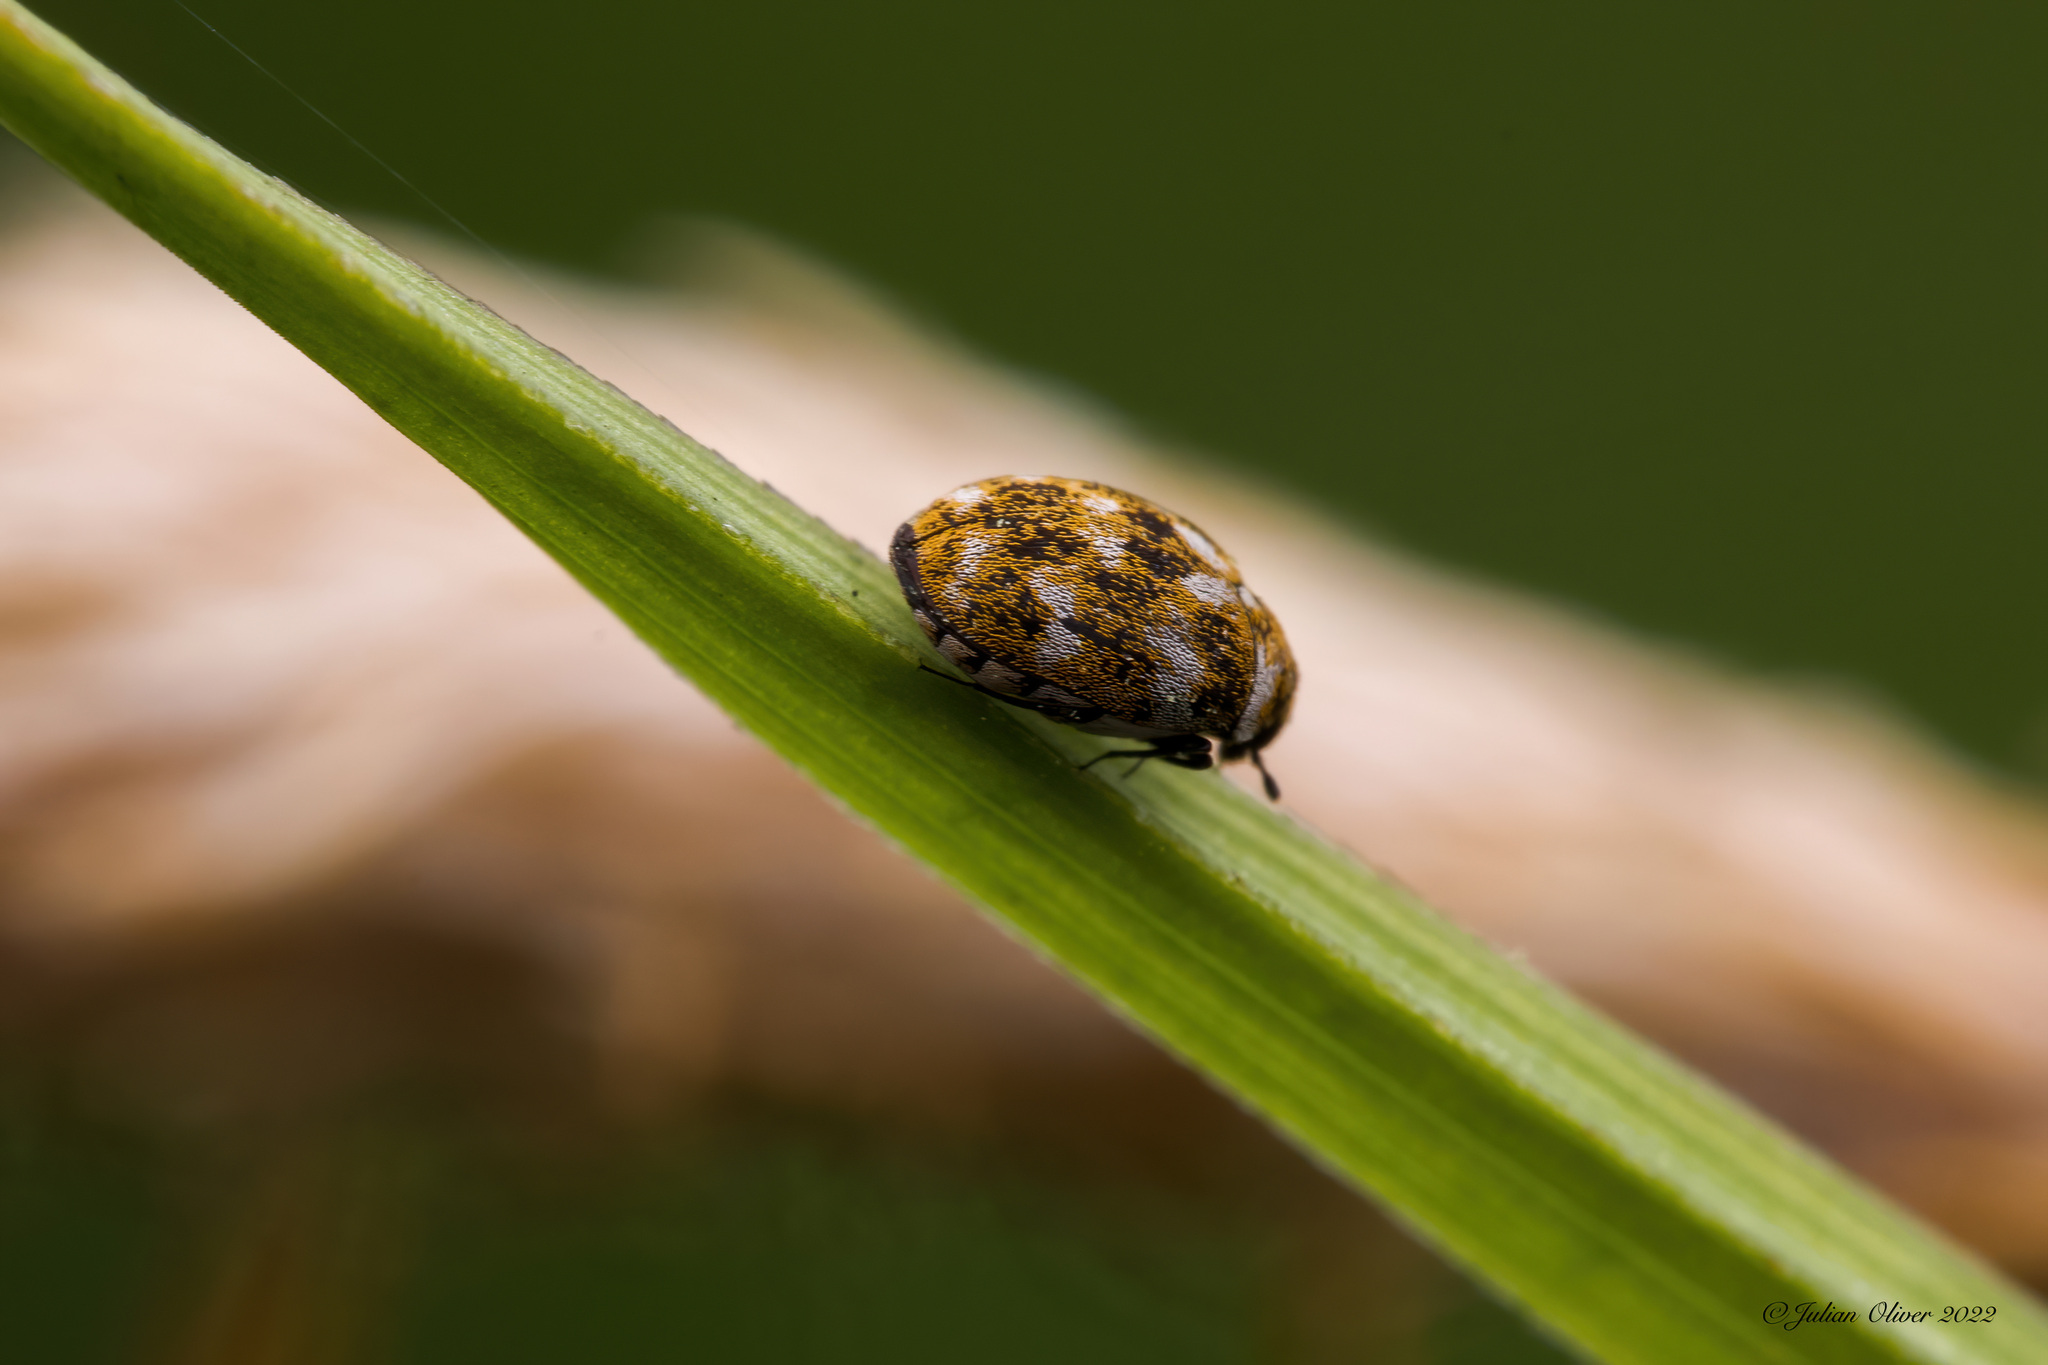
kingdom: Animalia
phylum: Arthropoda
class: Insecta
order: Coleoptera
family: Dermestidae
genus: Anthrenus
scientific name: Anthrenus verbasci
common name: Varied carpet beetle
